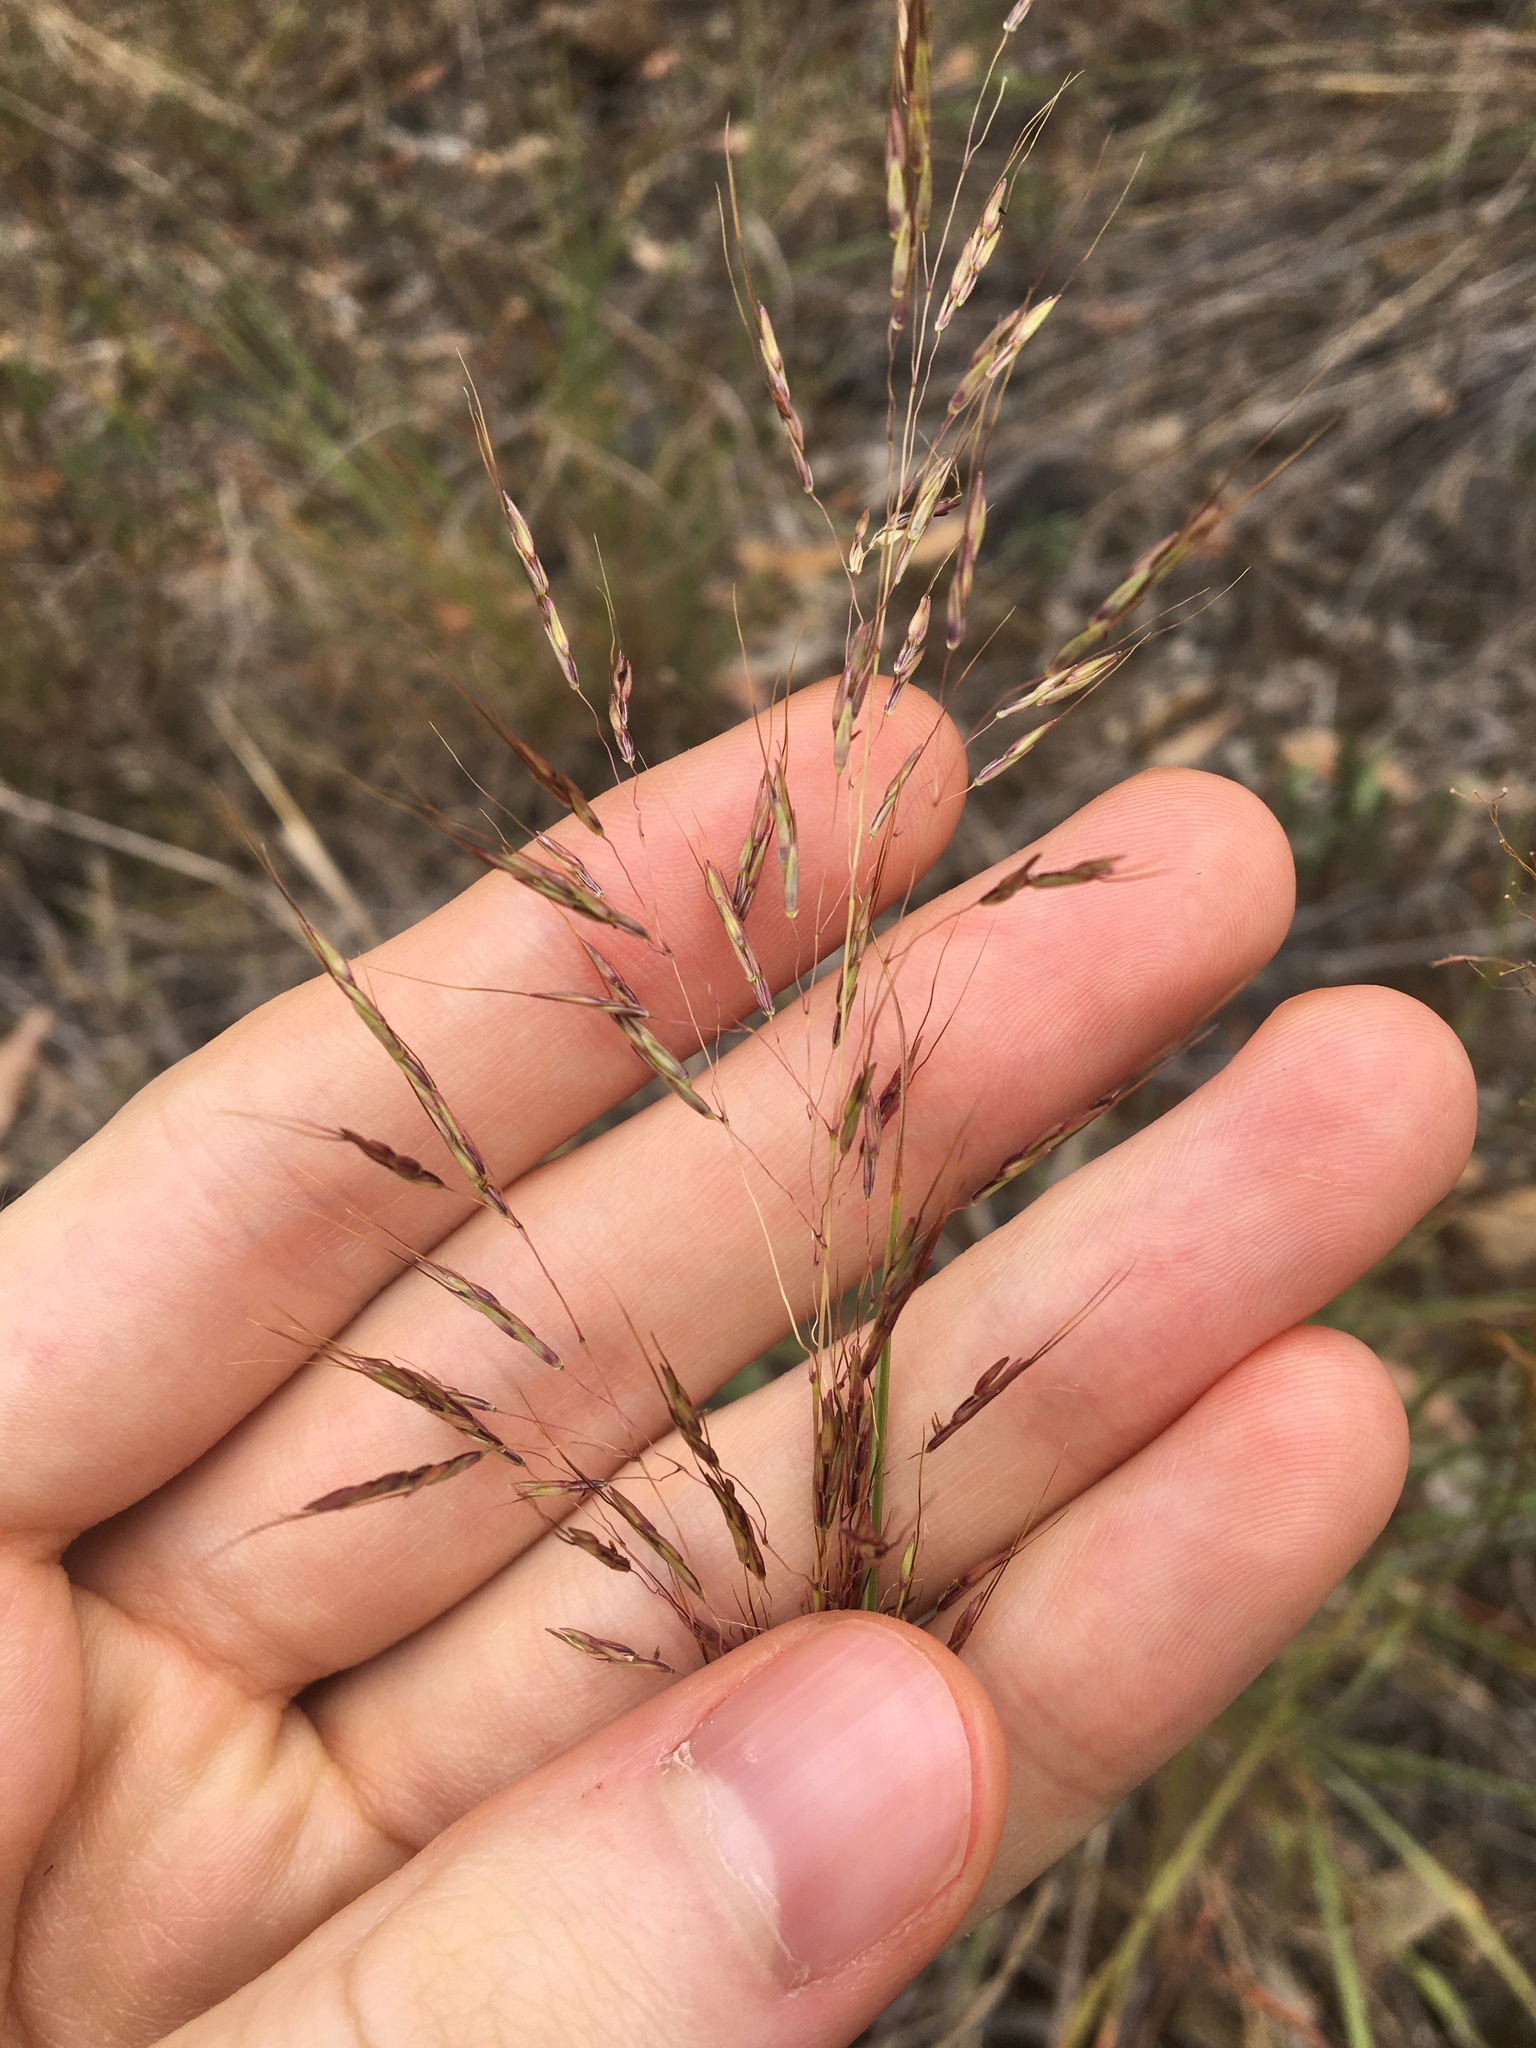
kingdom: Plantae
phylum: Tracheophyta
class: Liliopsida
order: Poales
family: Poaceae
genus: Capillipedium
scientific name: Capillipedium spicigerum
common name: Scented-top grass
